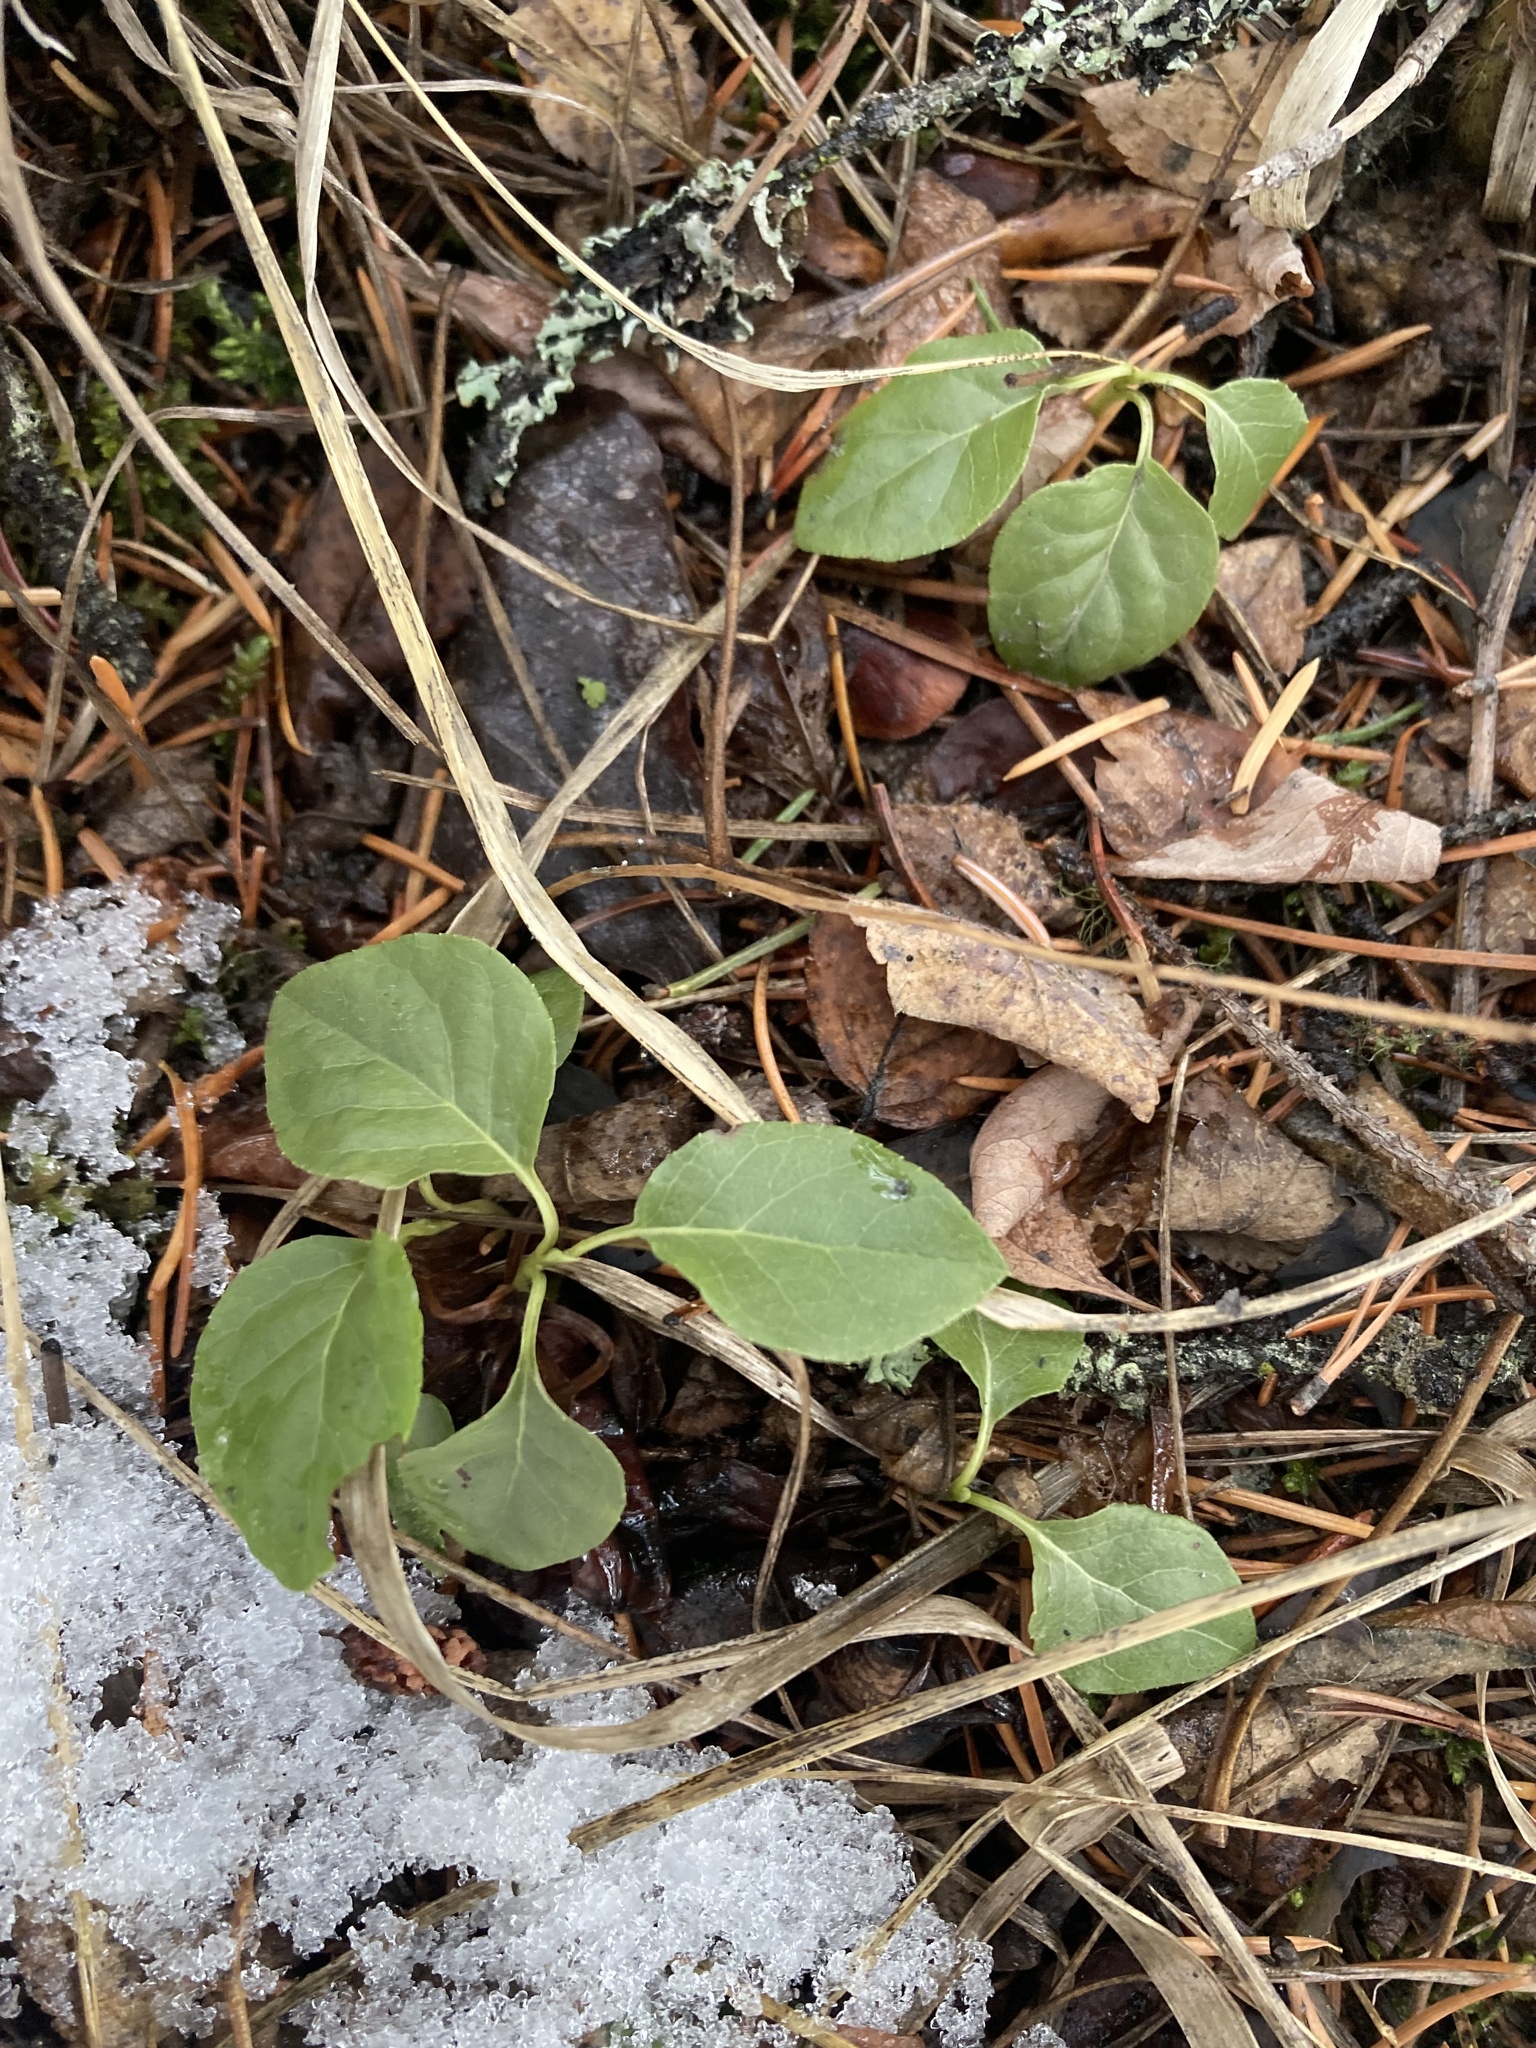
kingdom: Plantae
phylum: Tracheophyta
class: Magnoliopsida
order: Ericales
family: Ericaceae
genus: Orthilia
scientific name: Orthilia secunda
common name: One-sided orthilia
